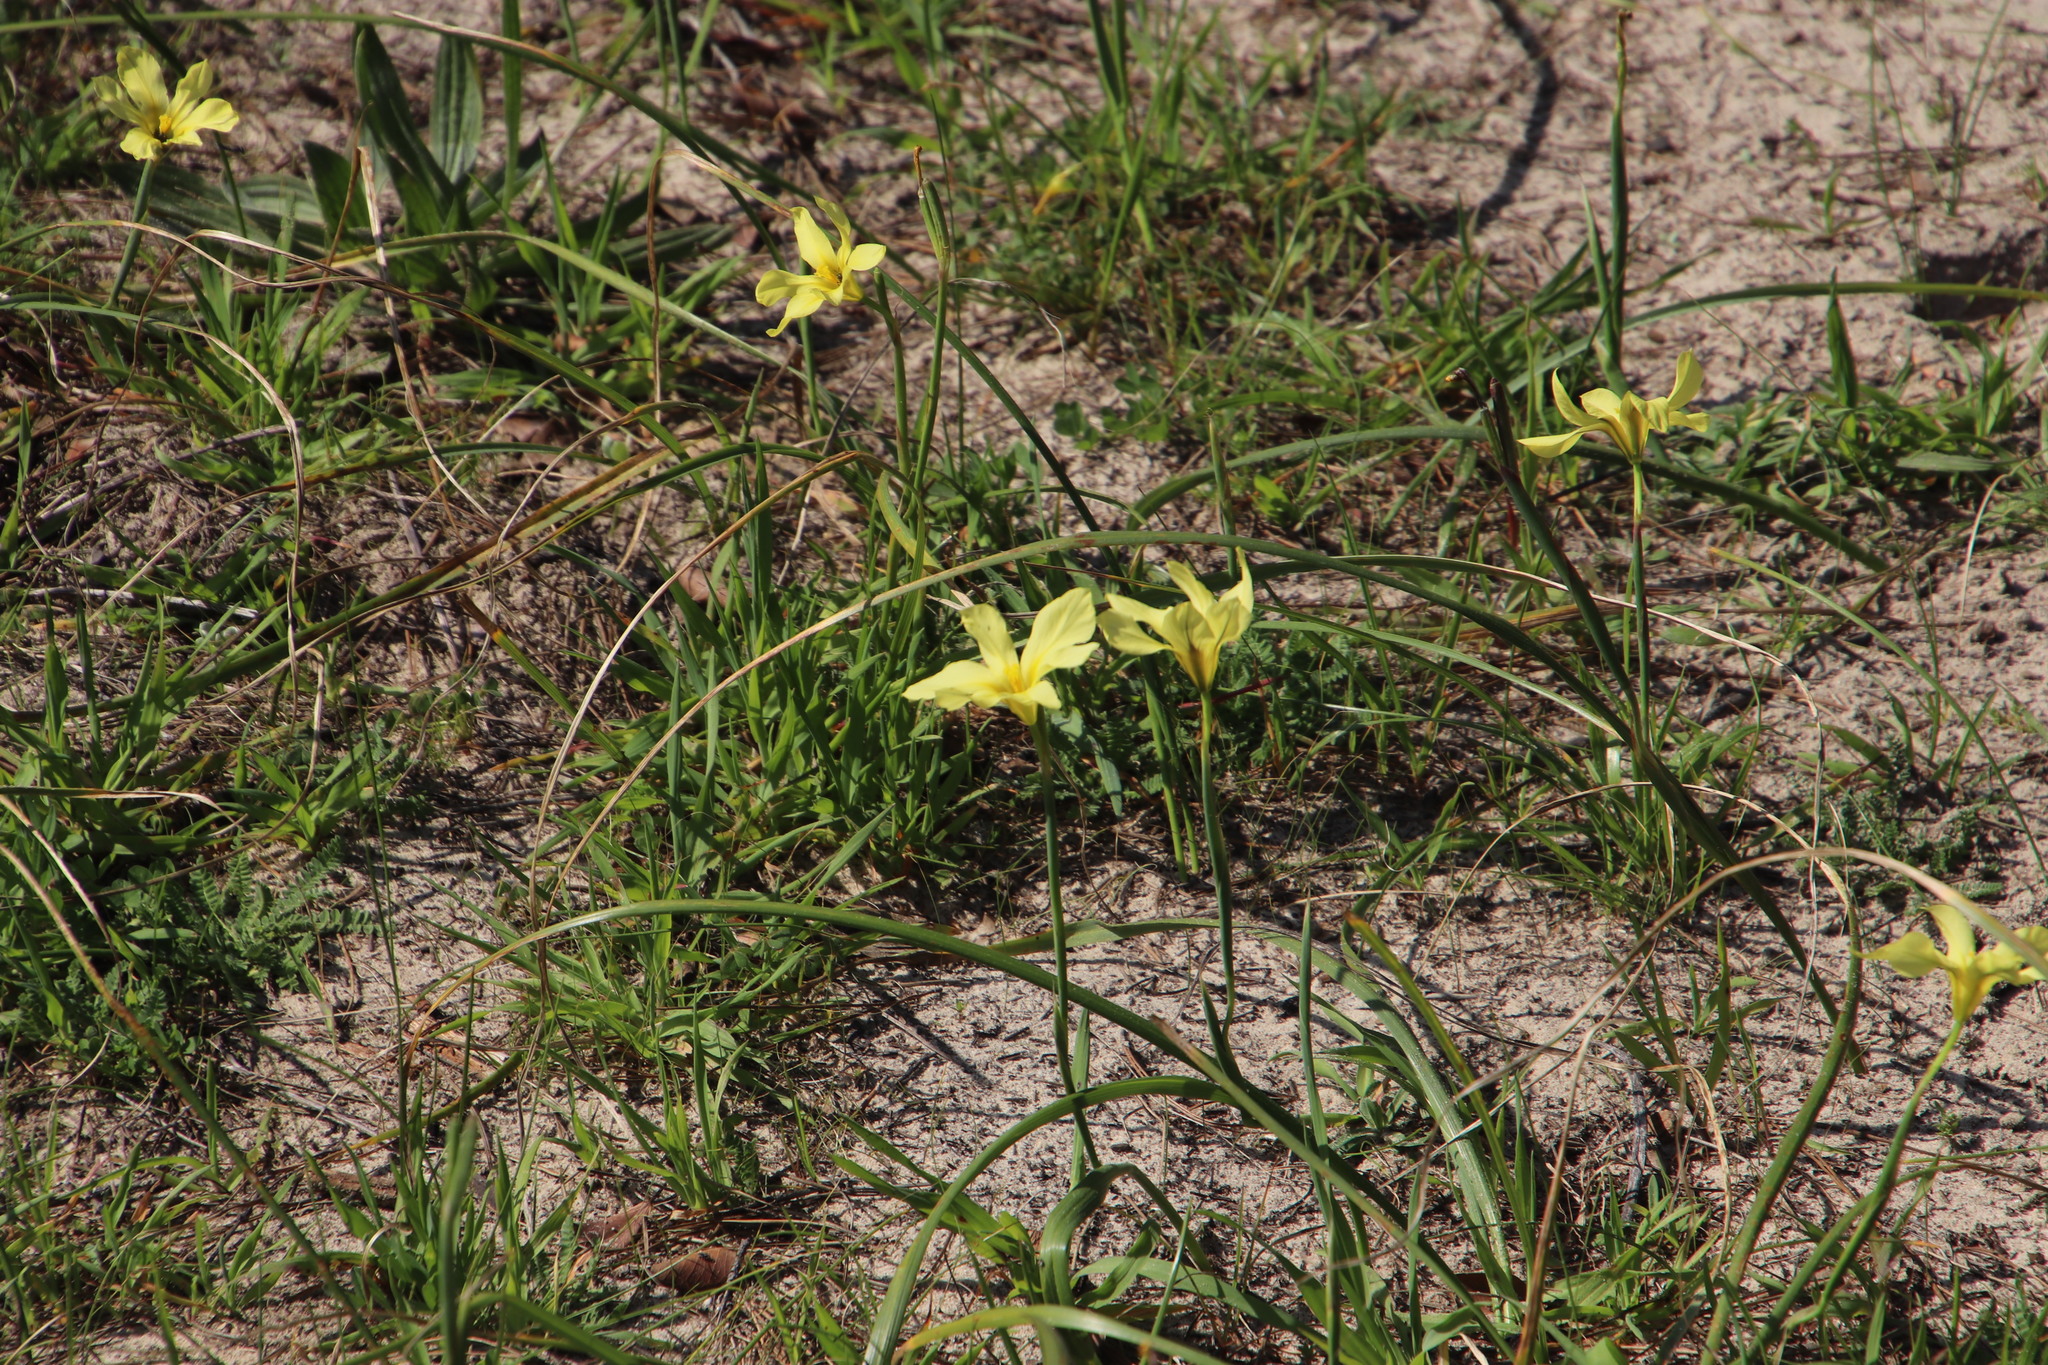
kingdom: Plantae
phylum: Tracheophyta
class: Liliopsida
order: Asparagales
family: Iridaceae
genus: Moraea
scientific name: Moraea collina
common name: Cape-tulip
